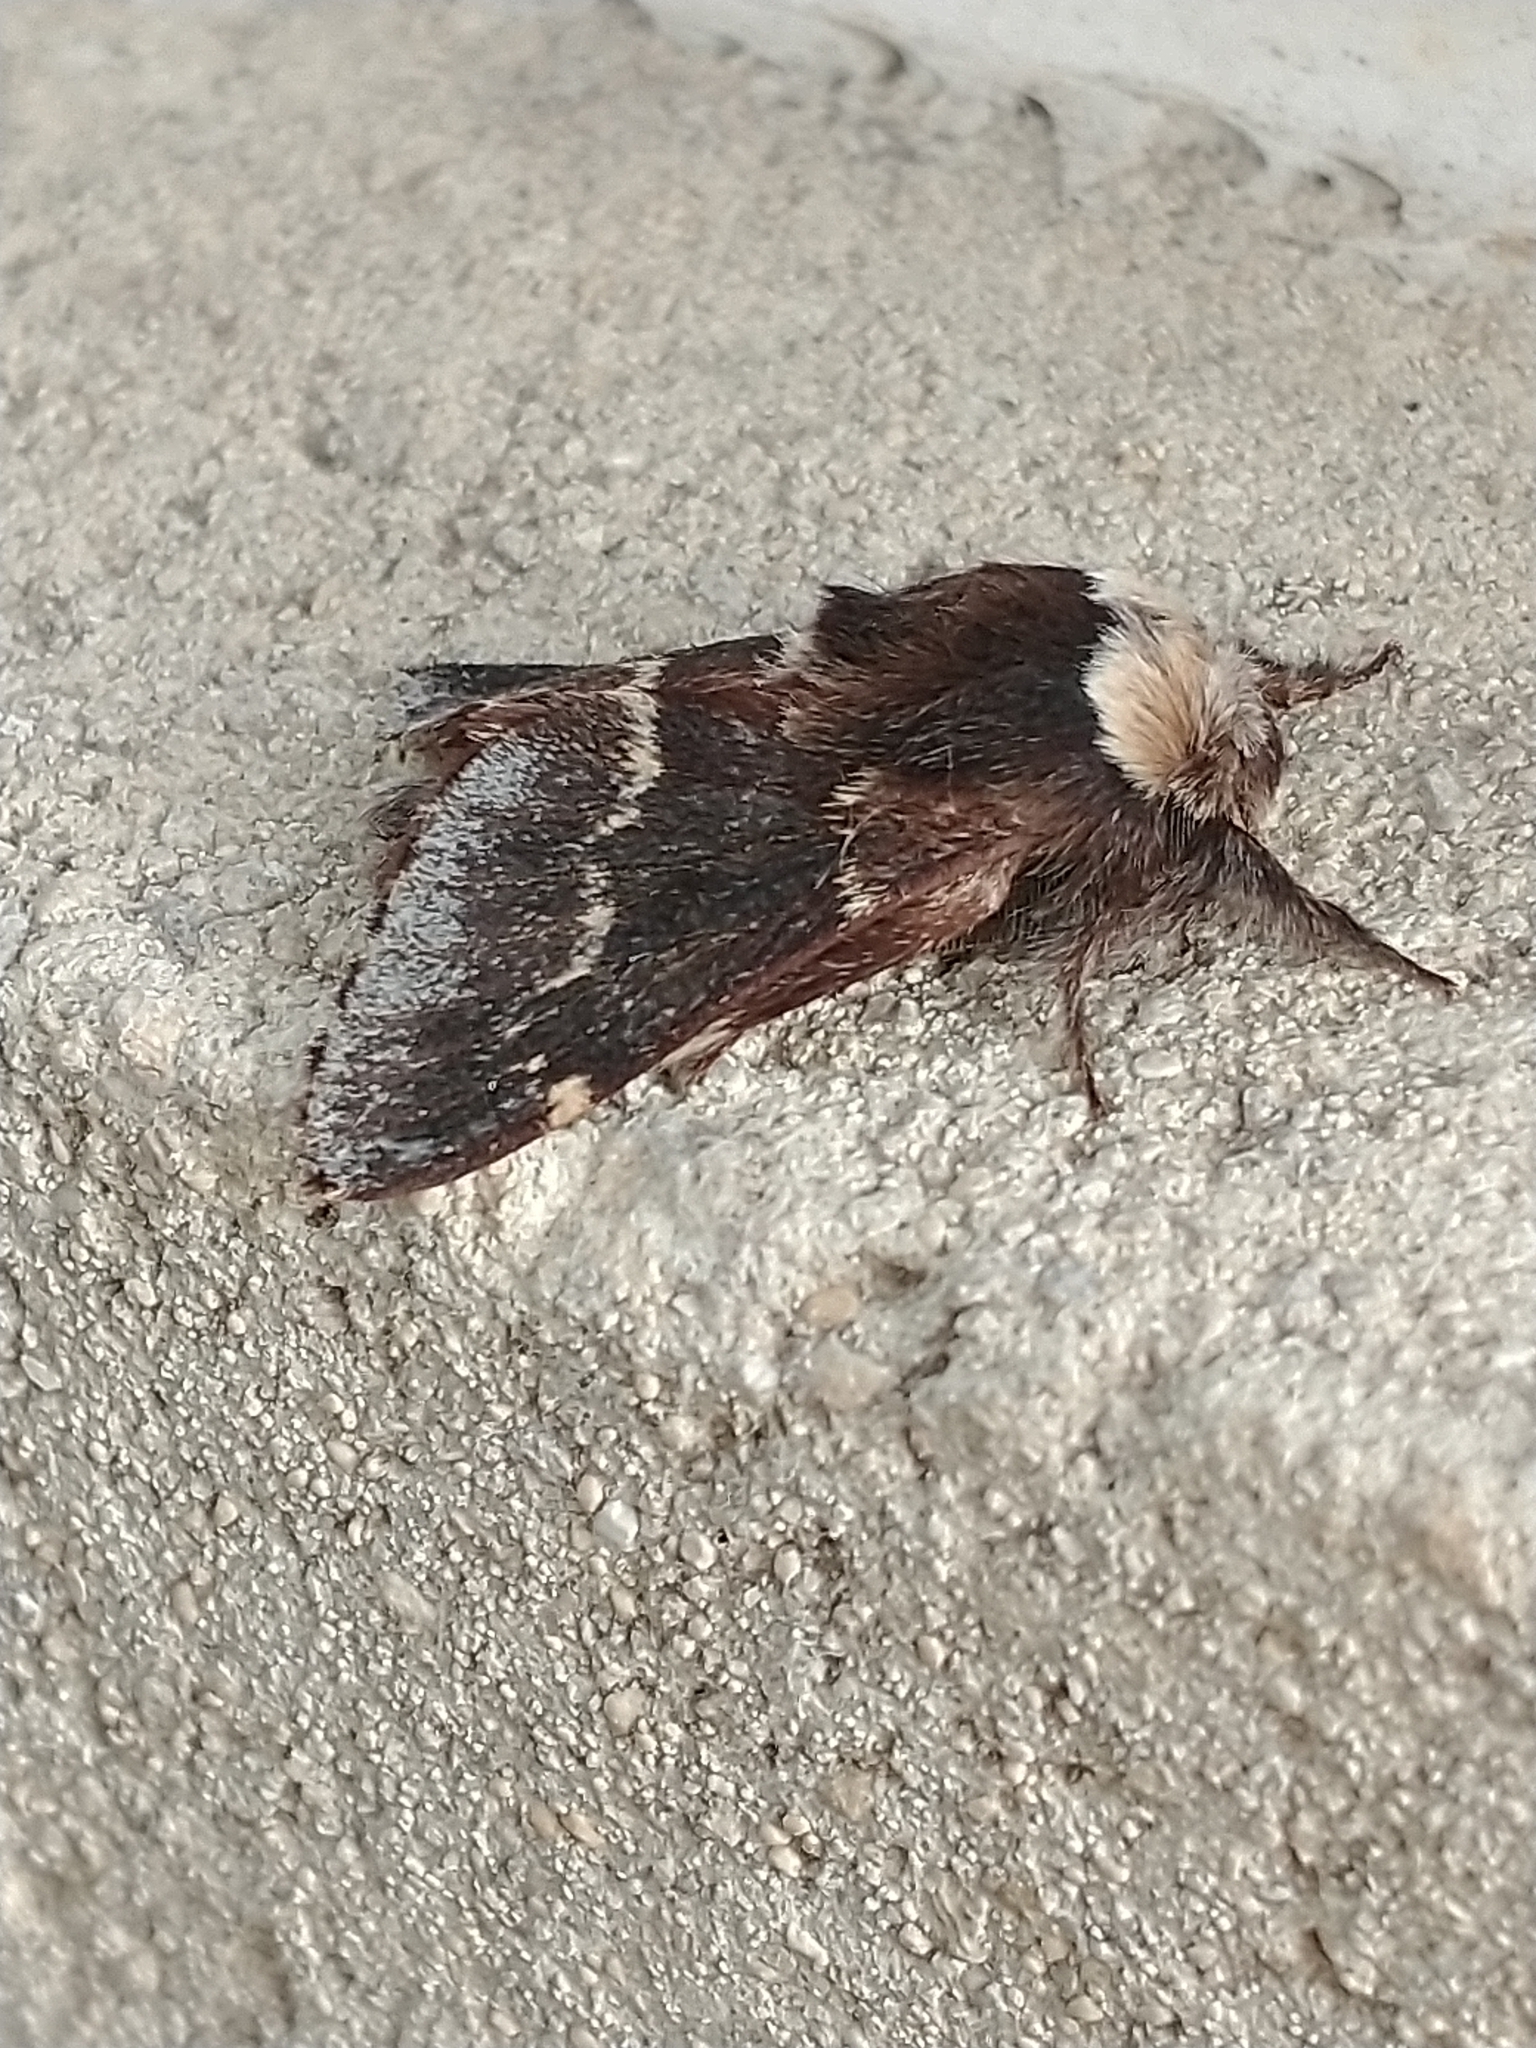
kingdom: Animalia
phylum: Arthropoda
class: Insecta
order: Lepidoptera
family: Lasiocampidae
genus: Poecilocampa
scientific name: Poecilocampa populi
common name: December moth
